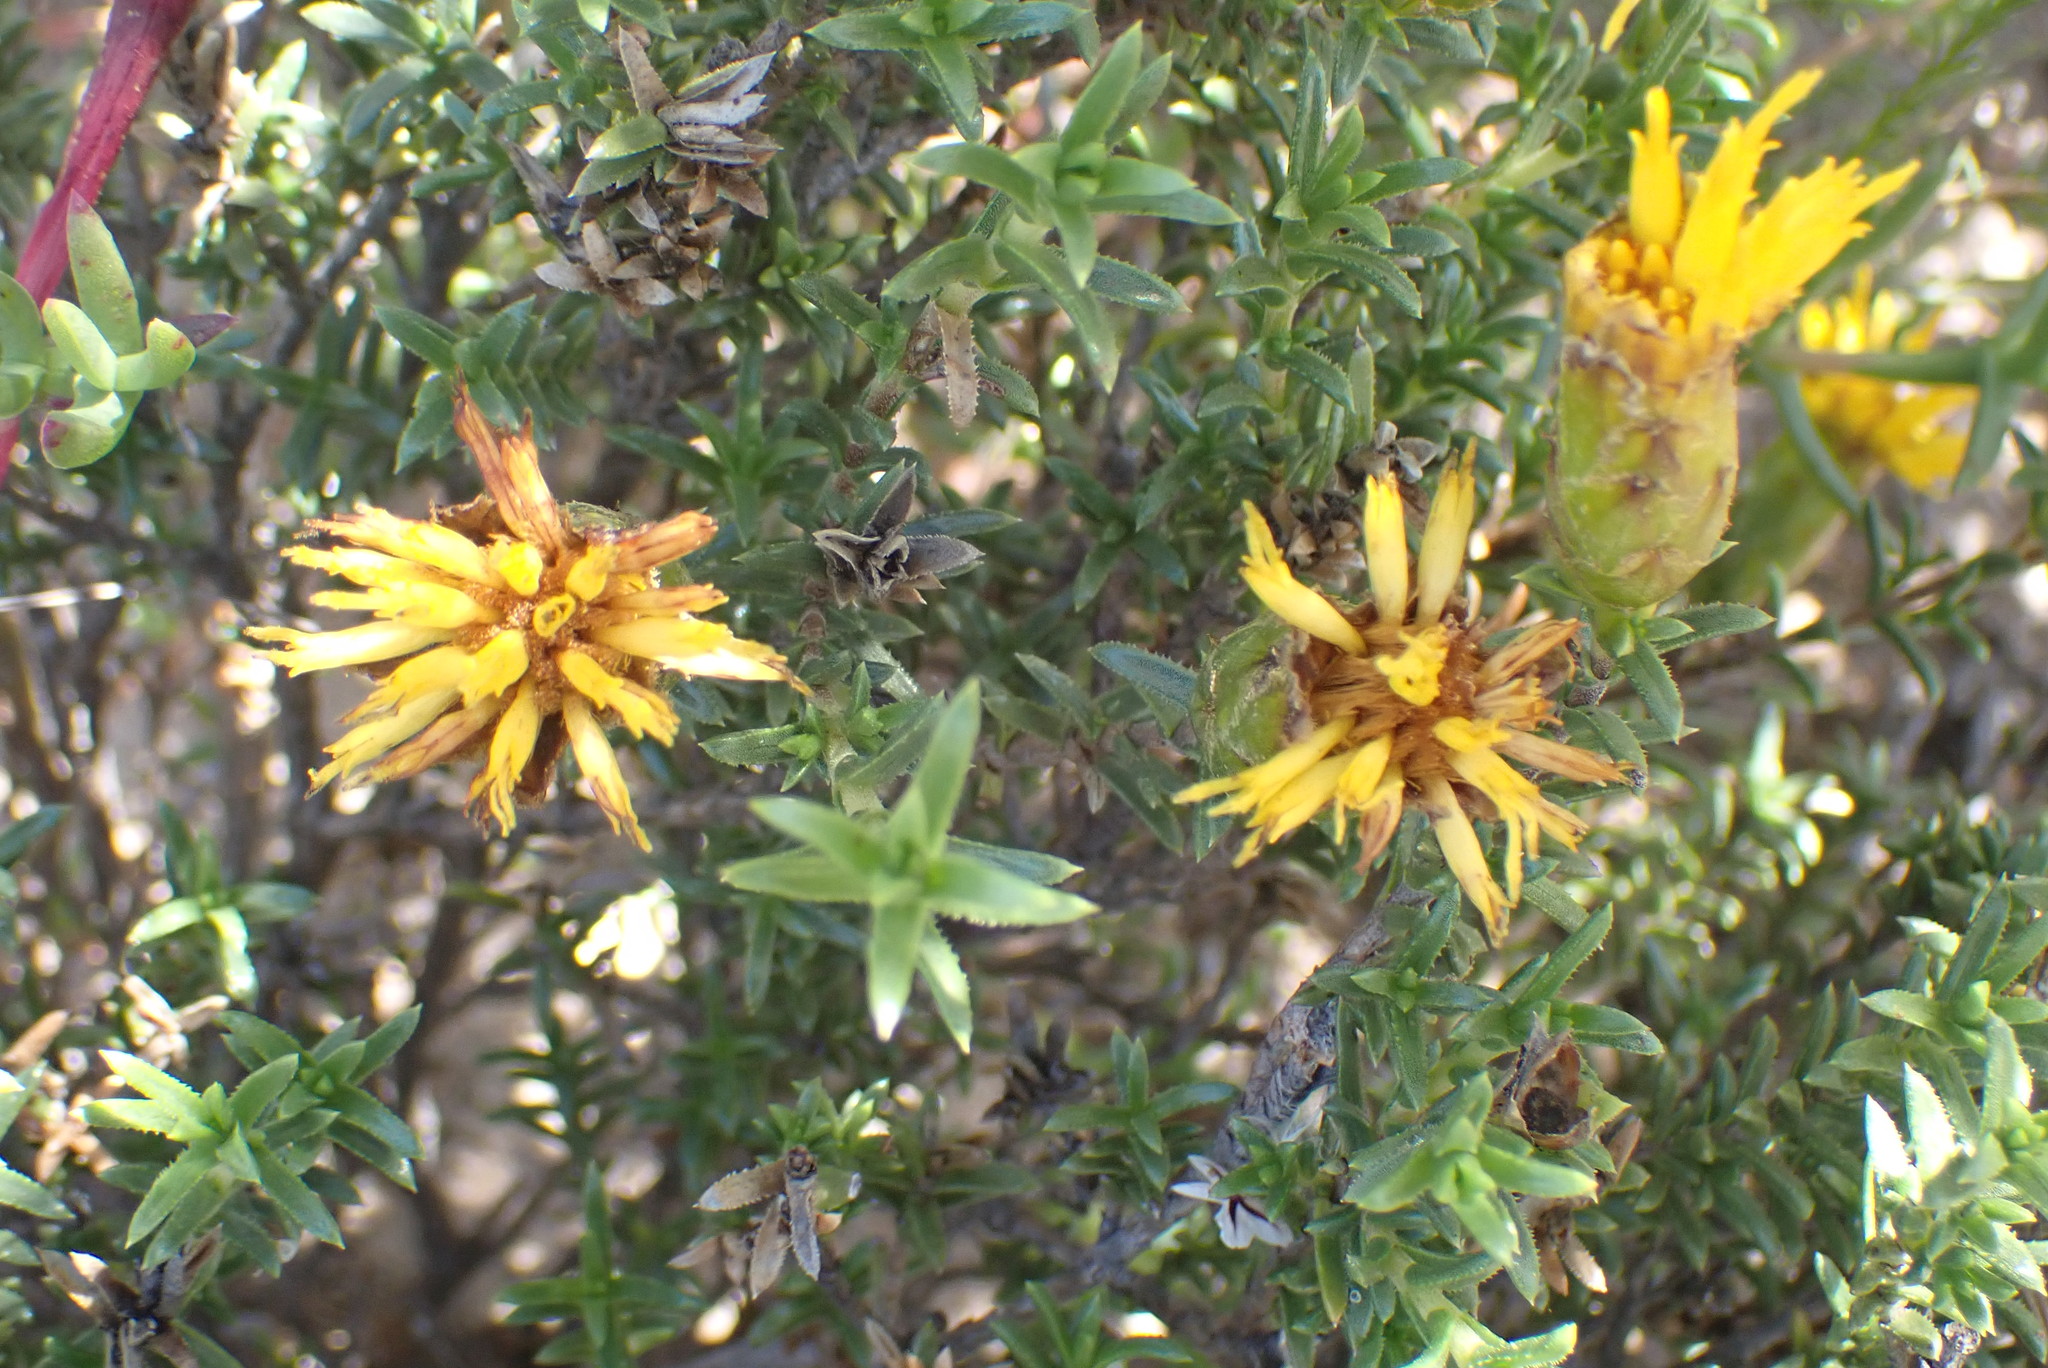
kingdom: Plantae
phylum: Tracheophyta
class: Magnoliopsida
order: Asterales
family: Asteraceae
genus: Pteronia
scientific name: Pteronia elongata
